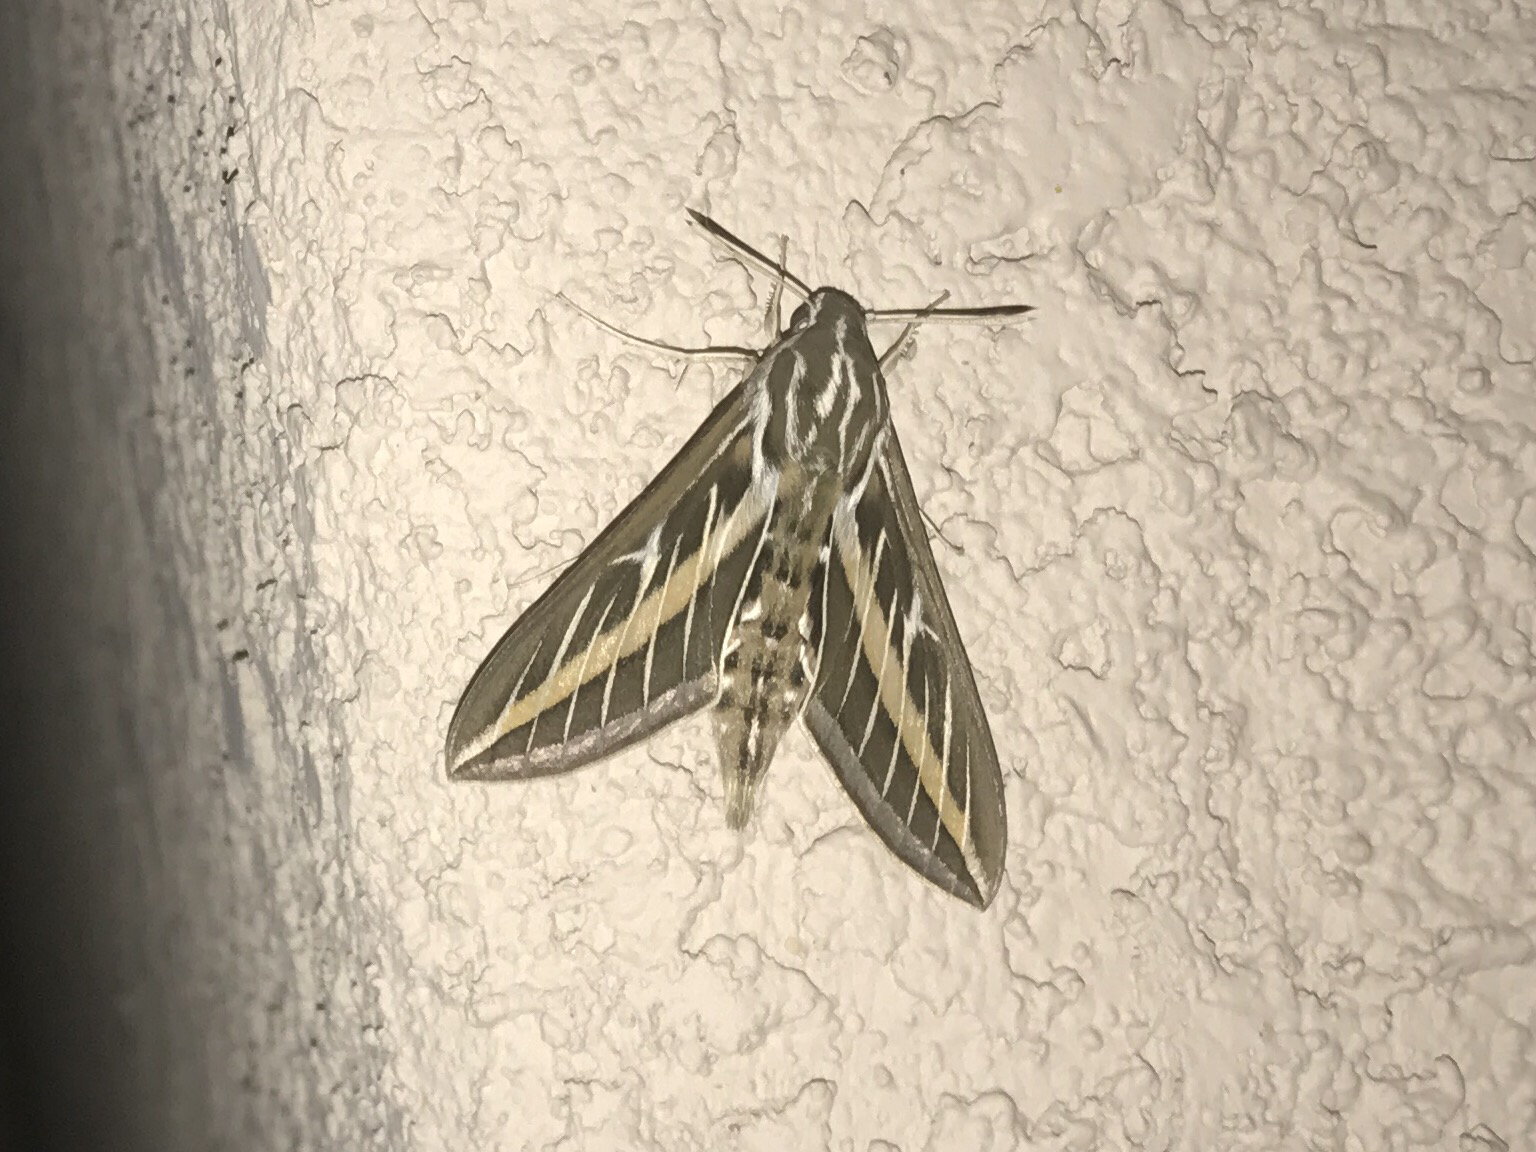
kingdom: Animalia
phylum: Arthropoda
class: Insecta
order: Lepidoptera
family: Sphingidae
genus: Hyles
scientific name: Hyles lineata
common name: White-lined sphinx
